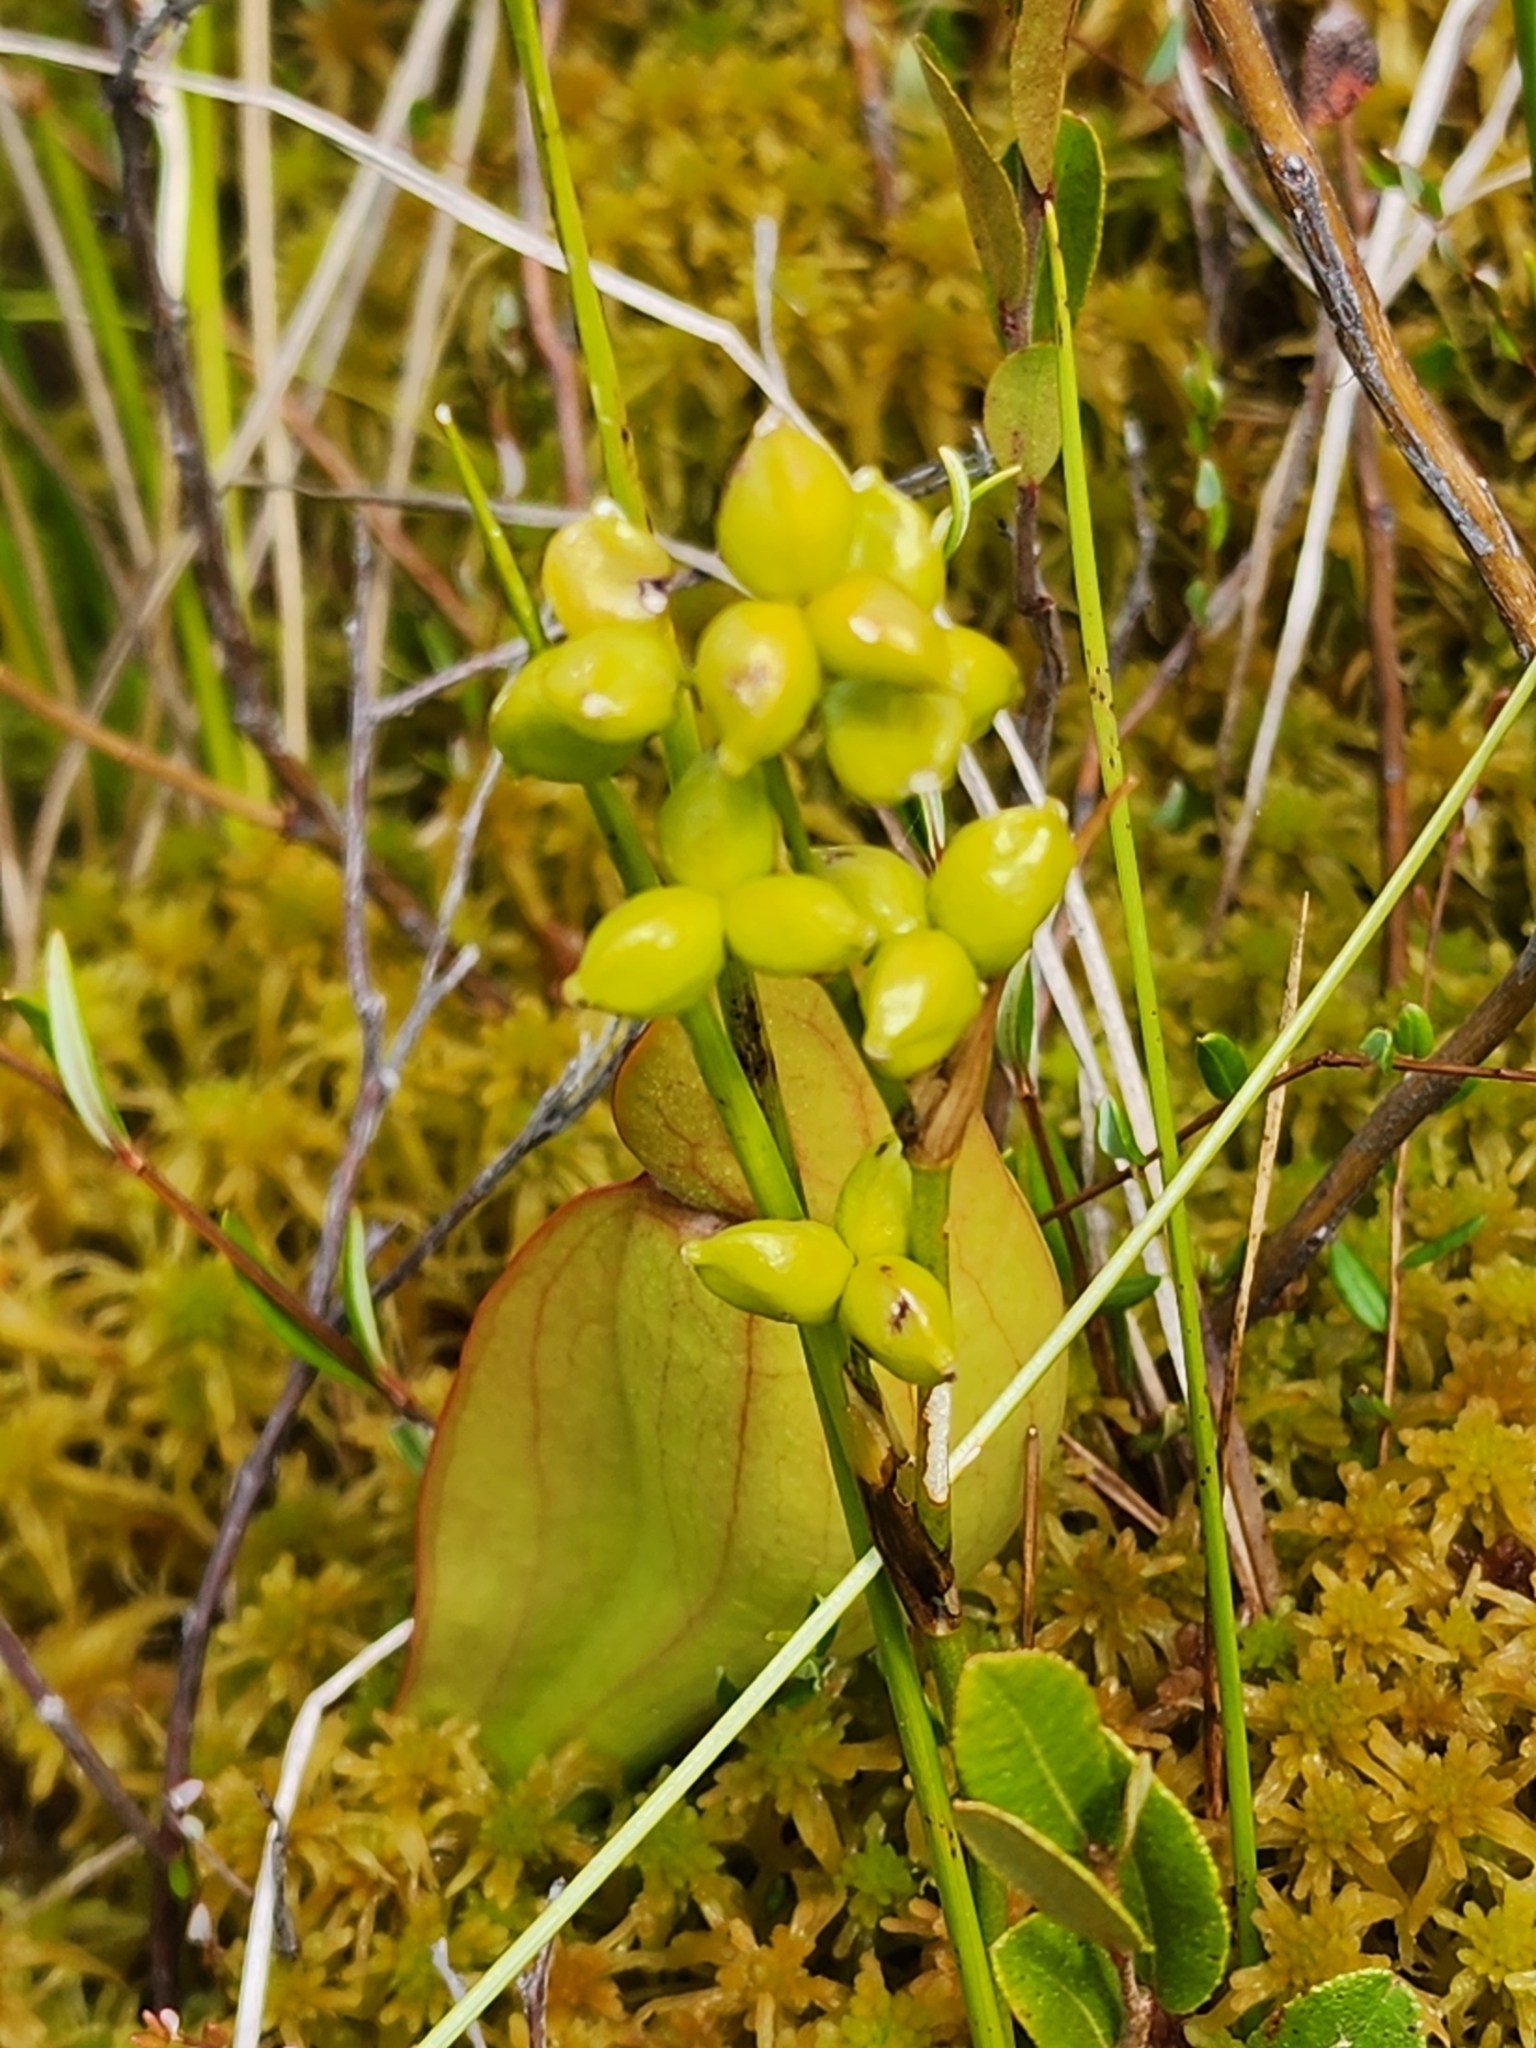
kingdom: Plantae
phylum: Tracheophyta
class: Liliopsida
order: Alismatales
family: Scheuchzeriaceae
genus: Scheuchzeria
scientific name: Scheuchzeria palustris
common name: Rannoch-rush
